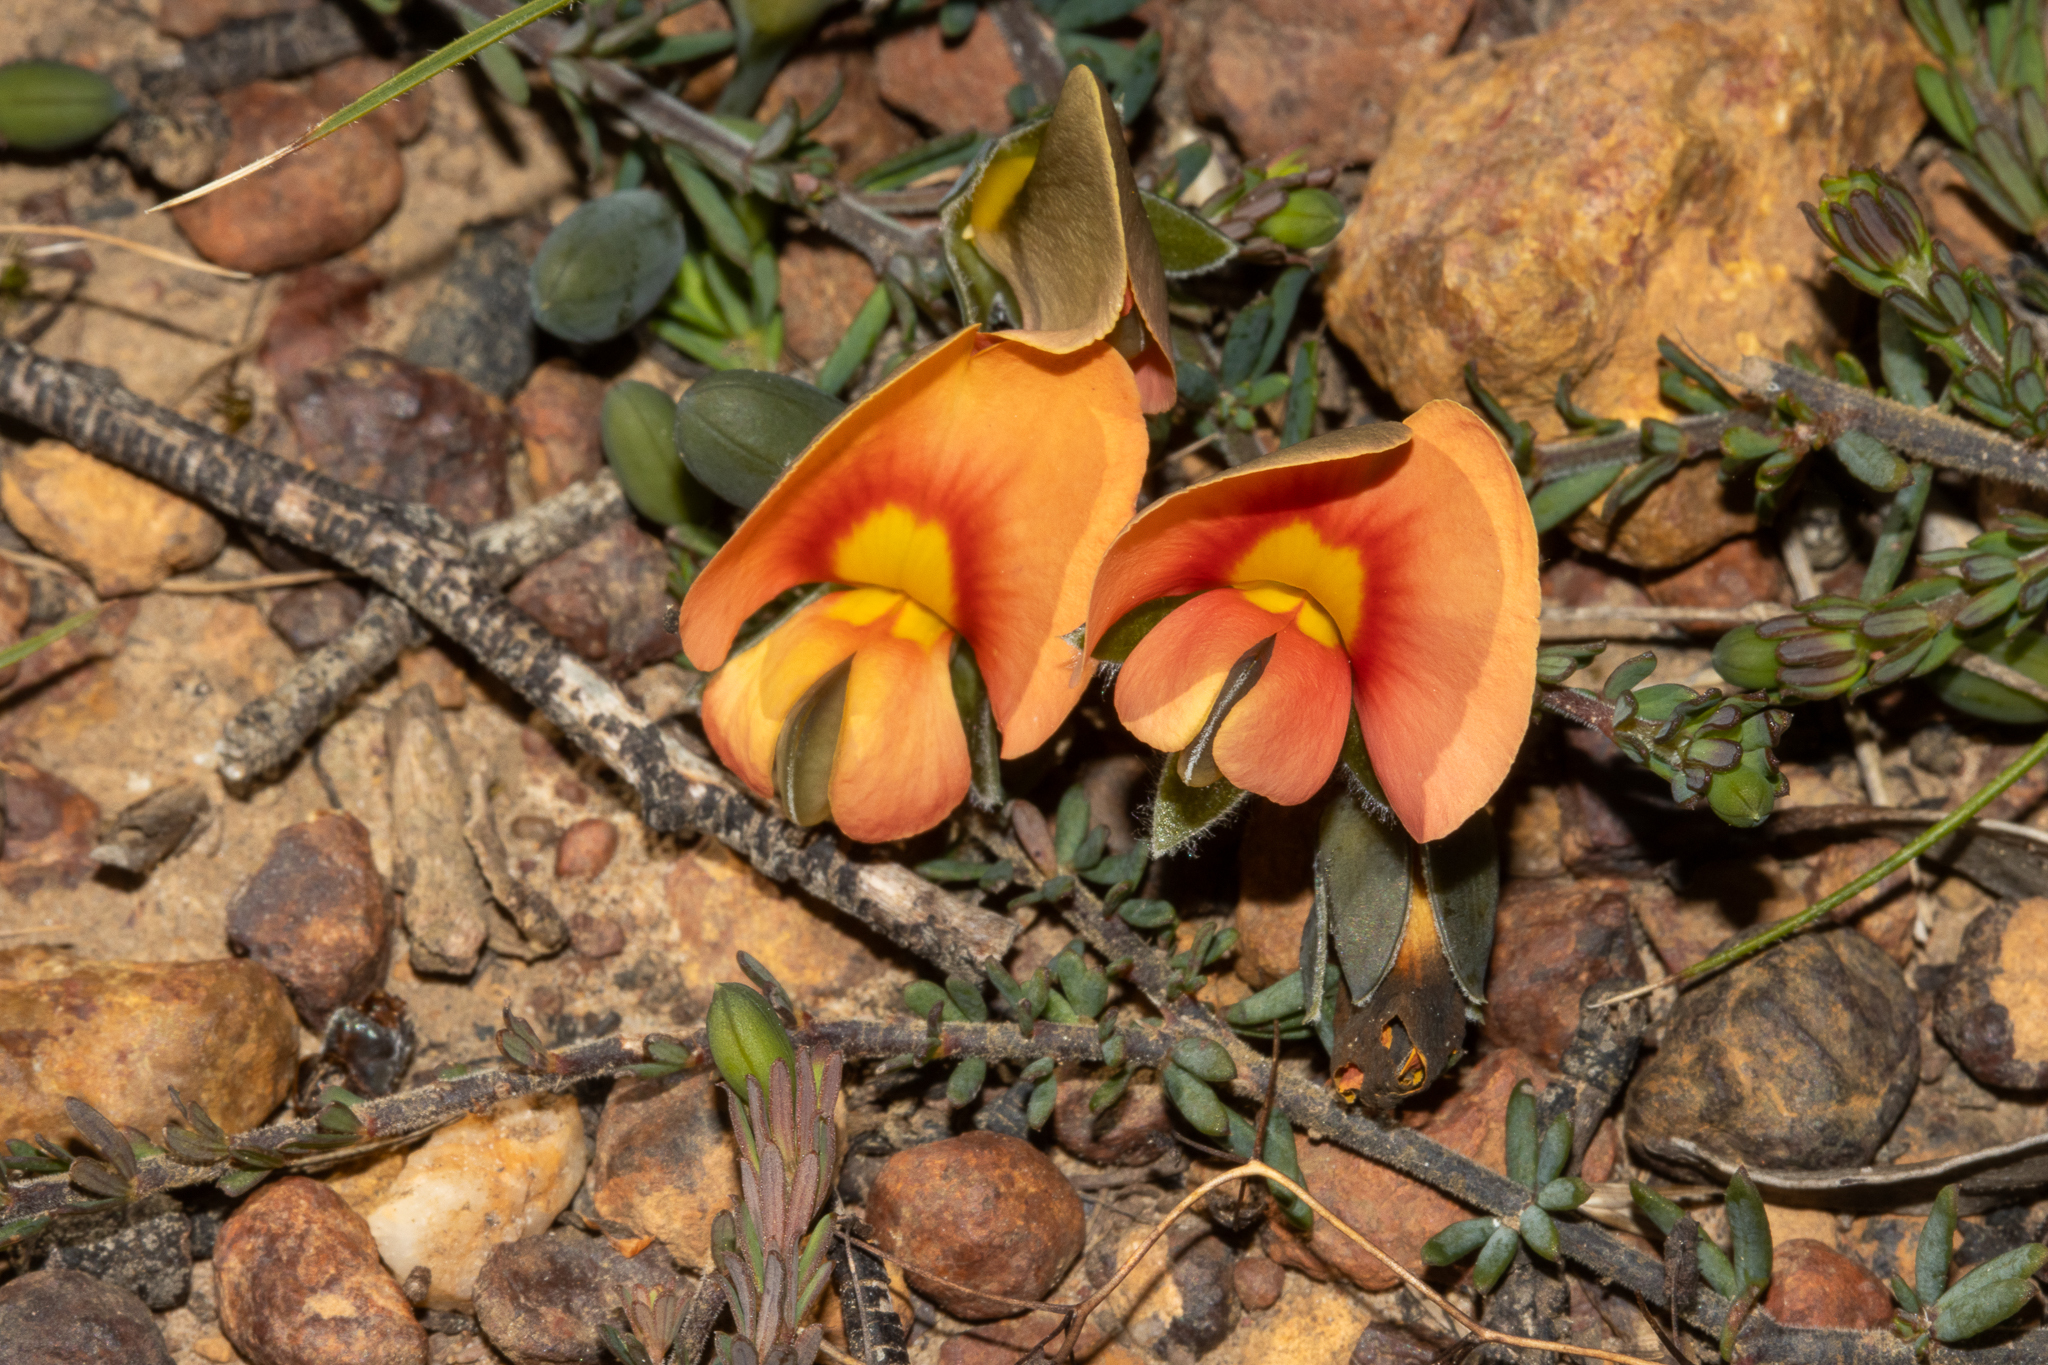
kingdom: Plantae
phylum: Tracheophyta
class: Magnoliopsida
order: Fabales
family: Fabaceae
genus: Gompholobium
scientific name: Gompholobium ecostatum
